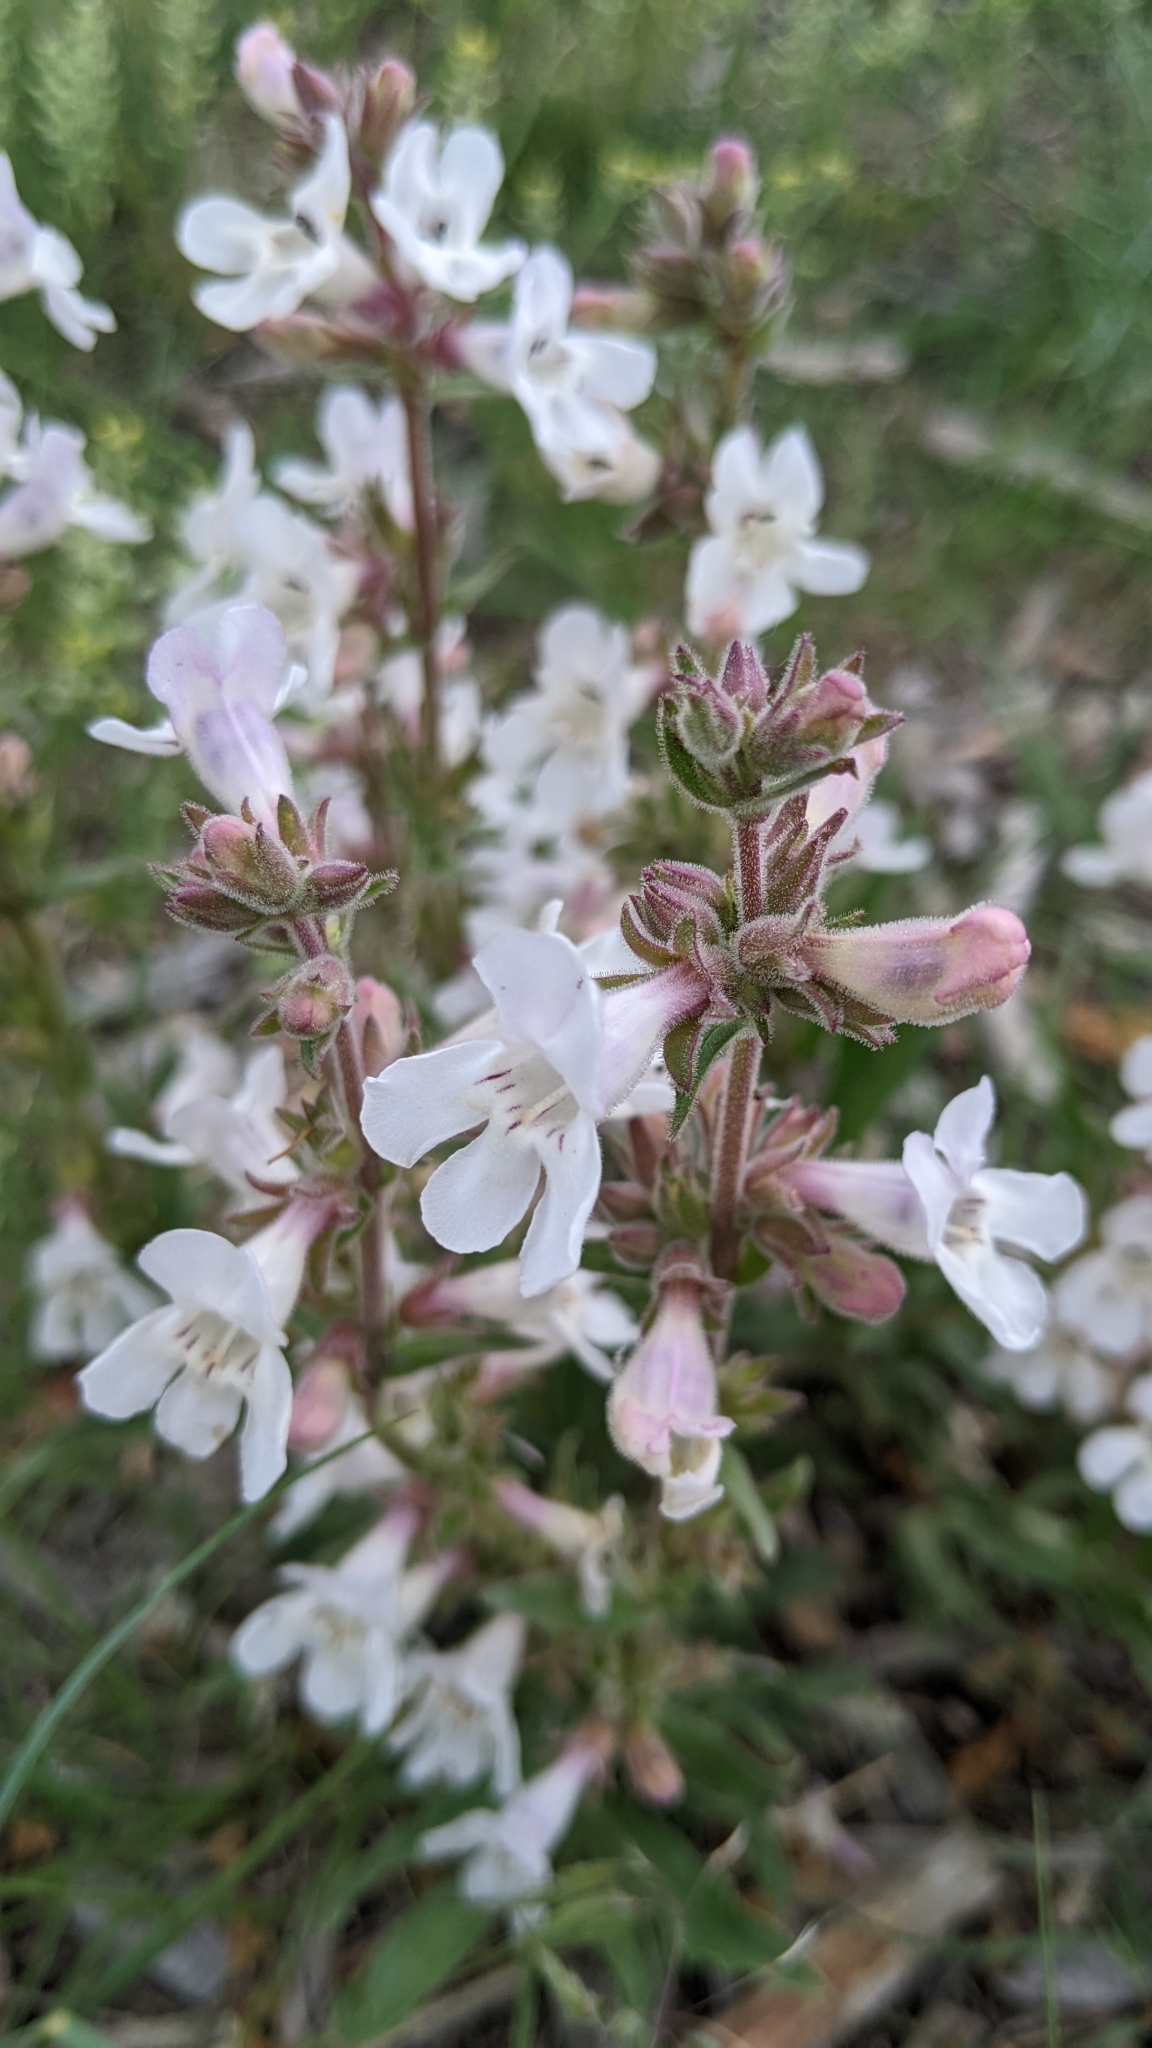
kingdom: Plantae
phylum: Tracheophyta
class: Magnoliopsida
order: Lamiales
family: Plantaginaceae
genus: Penstemon
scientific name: Penstemon albidus
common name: White beardtongue
